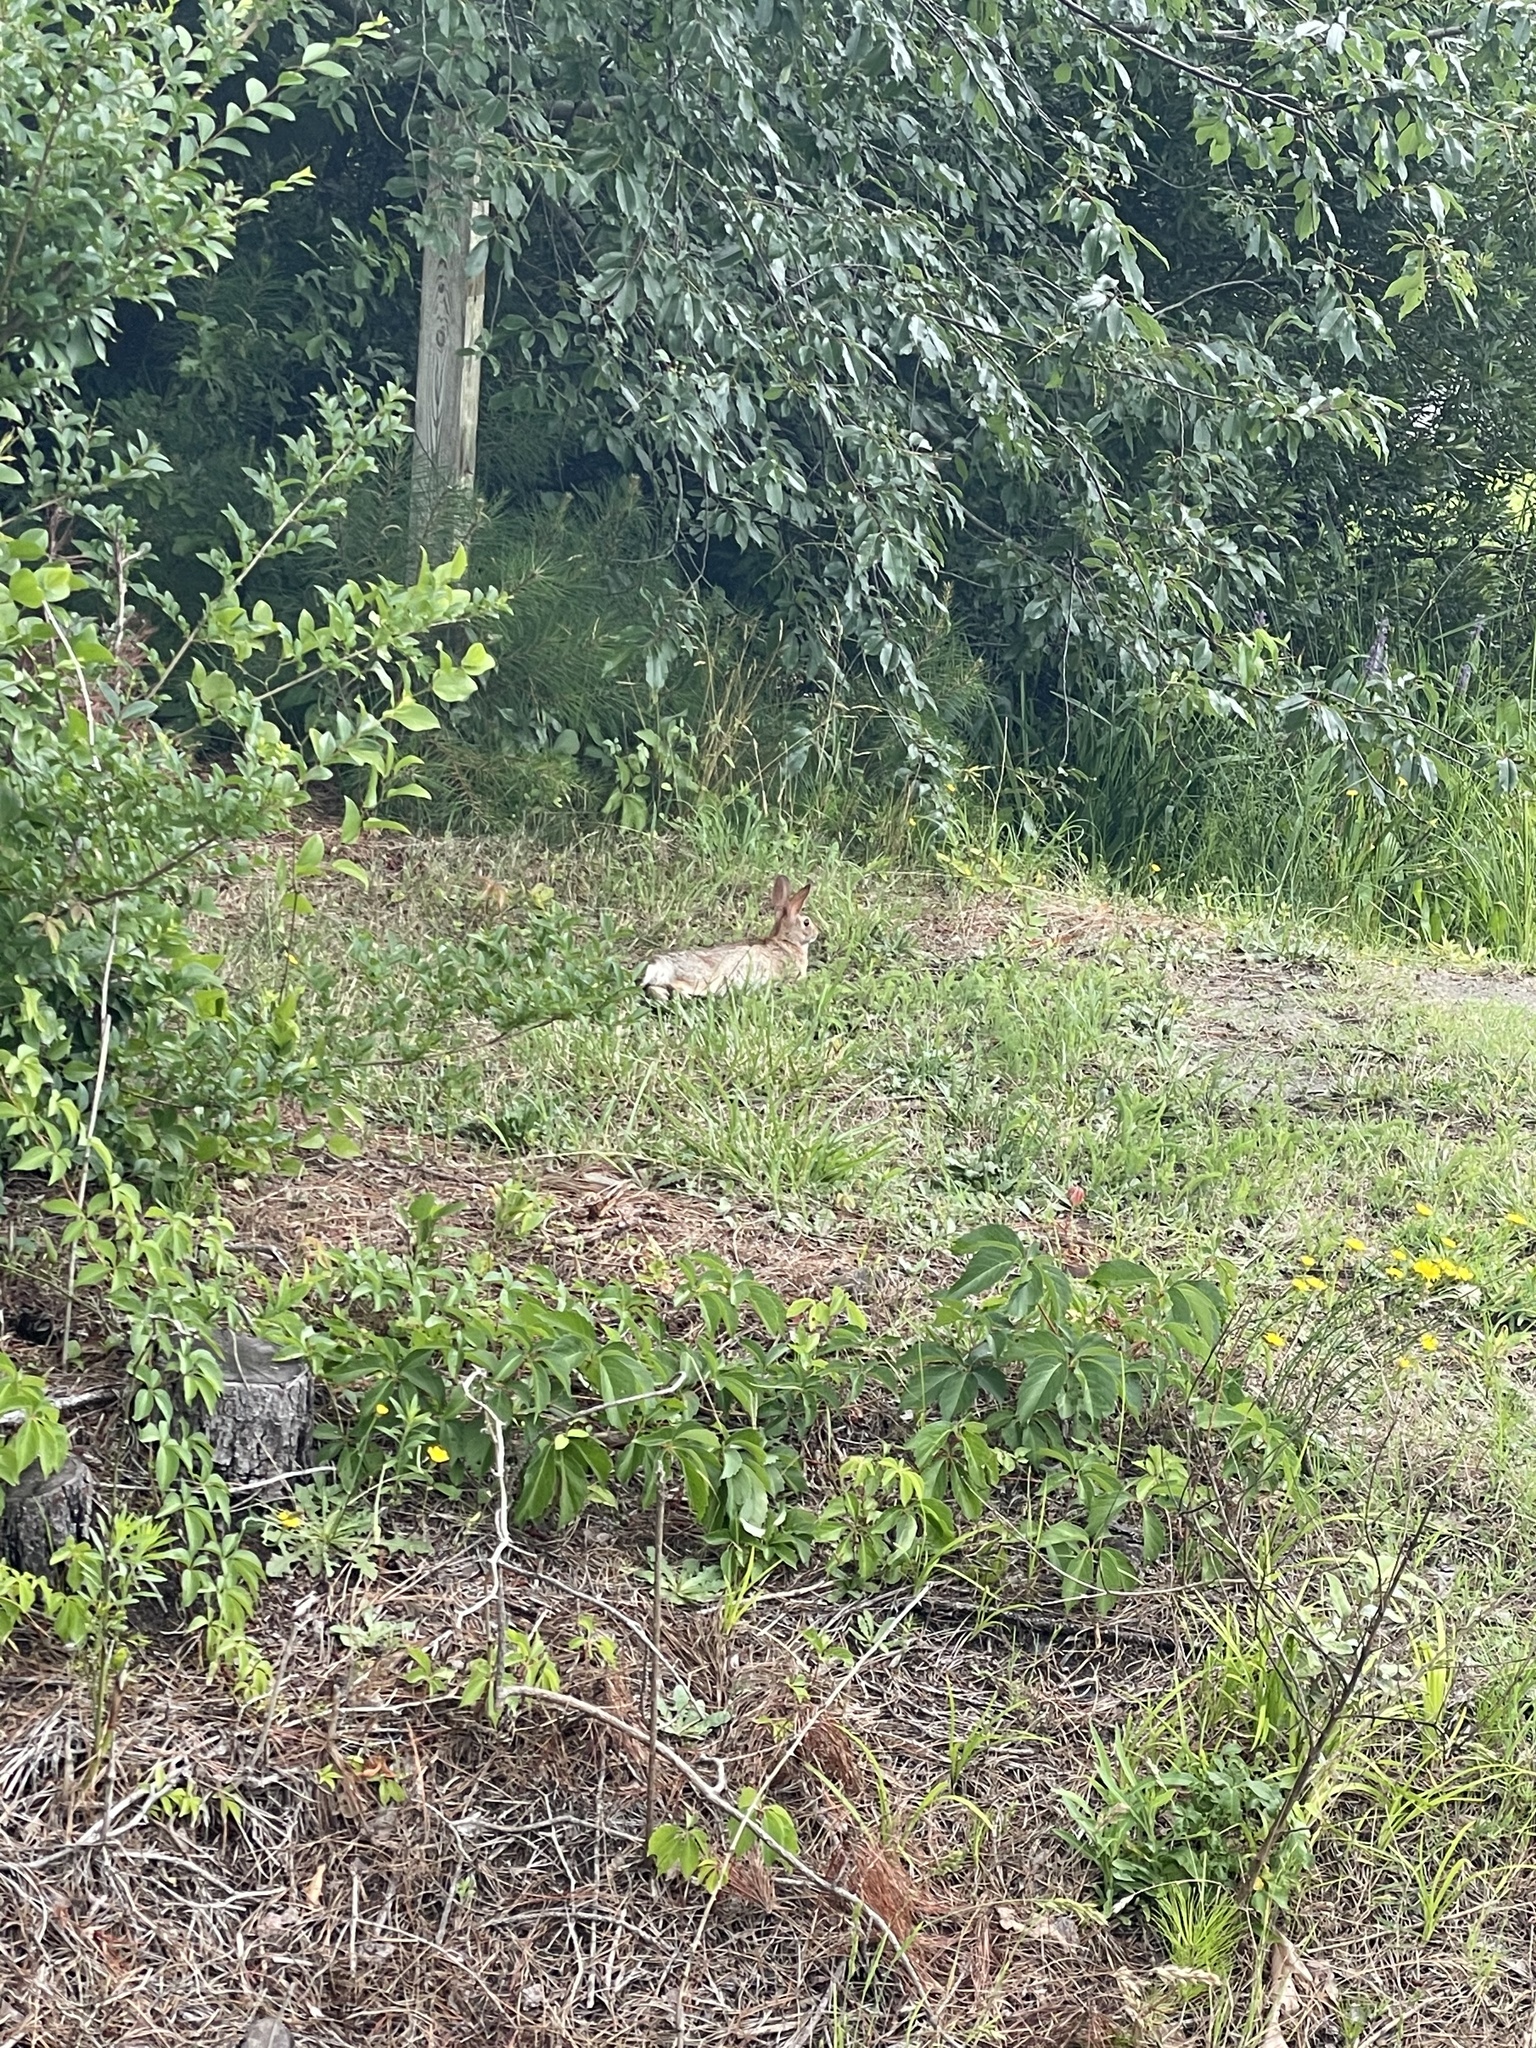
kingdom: Animalia
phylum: Chordata
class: Mammalia
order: Lagomorpha
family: Leporidae
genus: Sylvilagus
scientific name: Sylvilagus floridanus
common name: Eastern cottontail
